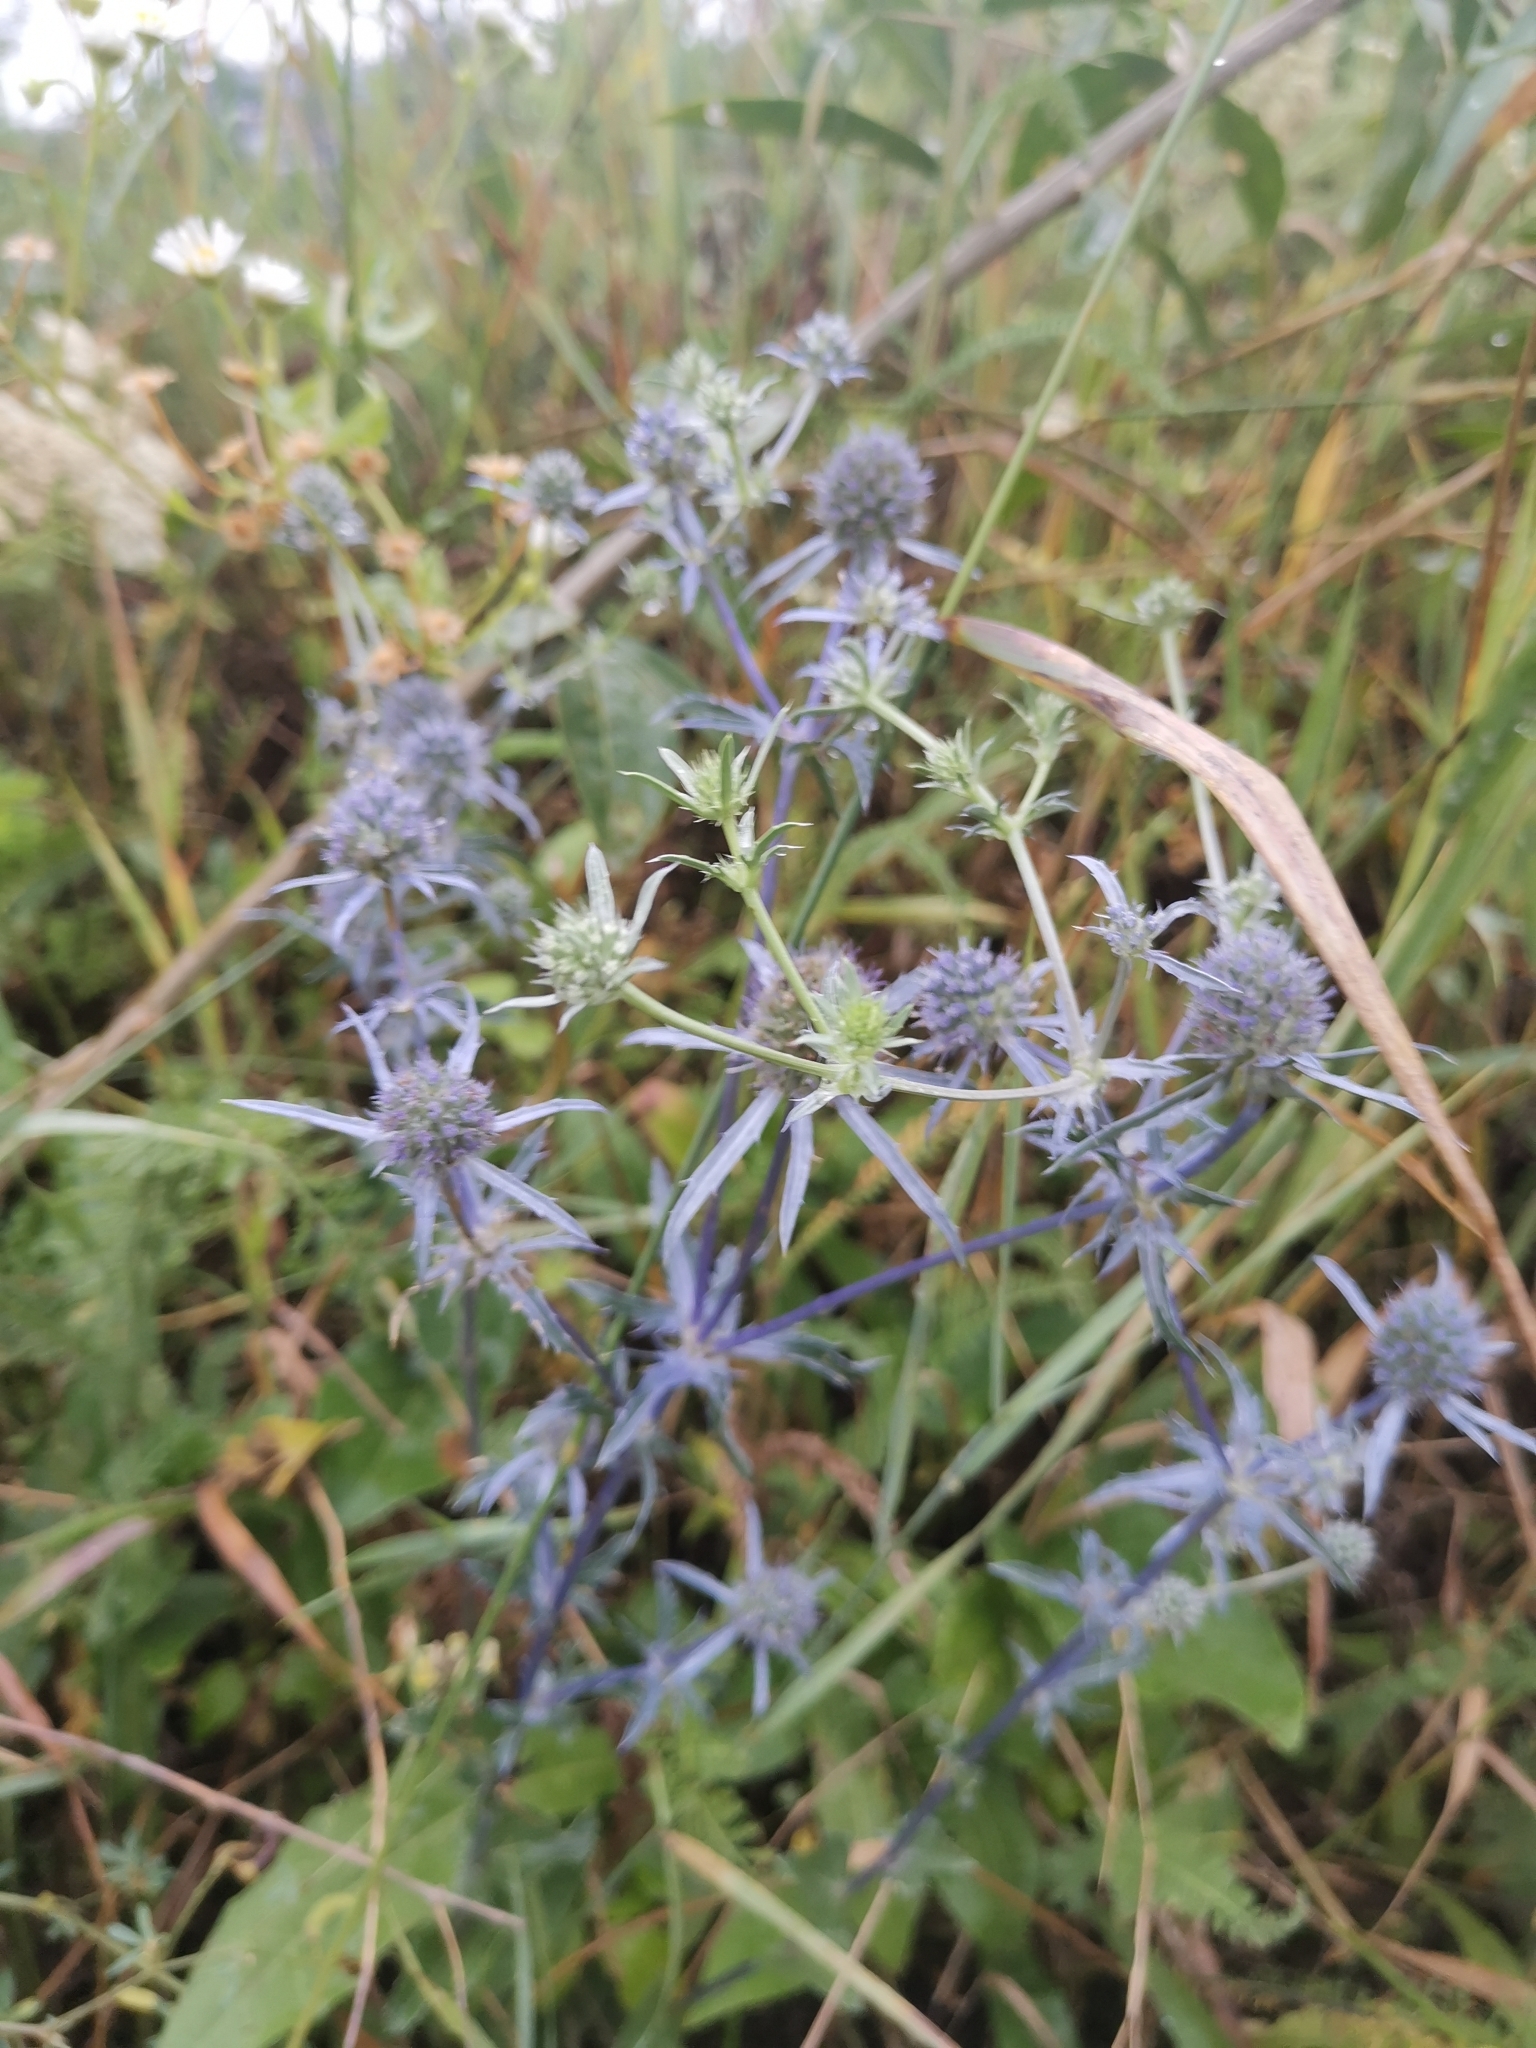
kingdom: Plantae
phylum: Tracheophyta
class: Magnoliopsida
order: Apiales
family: Apiaceae
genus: Eryngium
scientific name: Eryngium planum
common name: Blue eryngo
